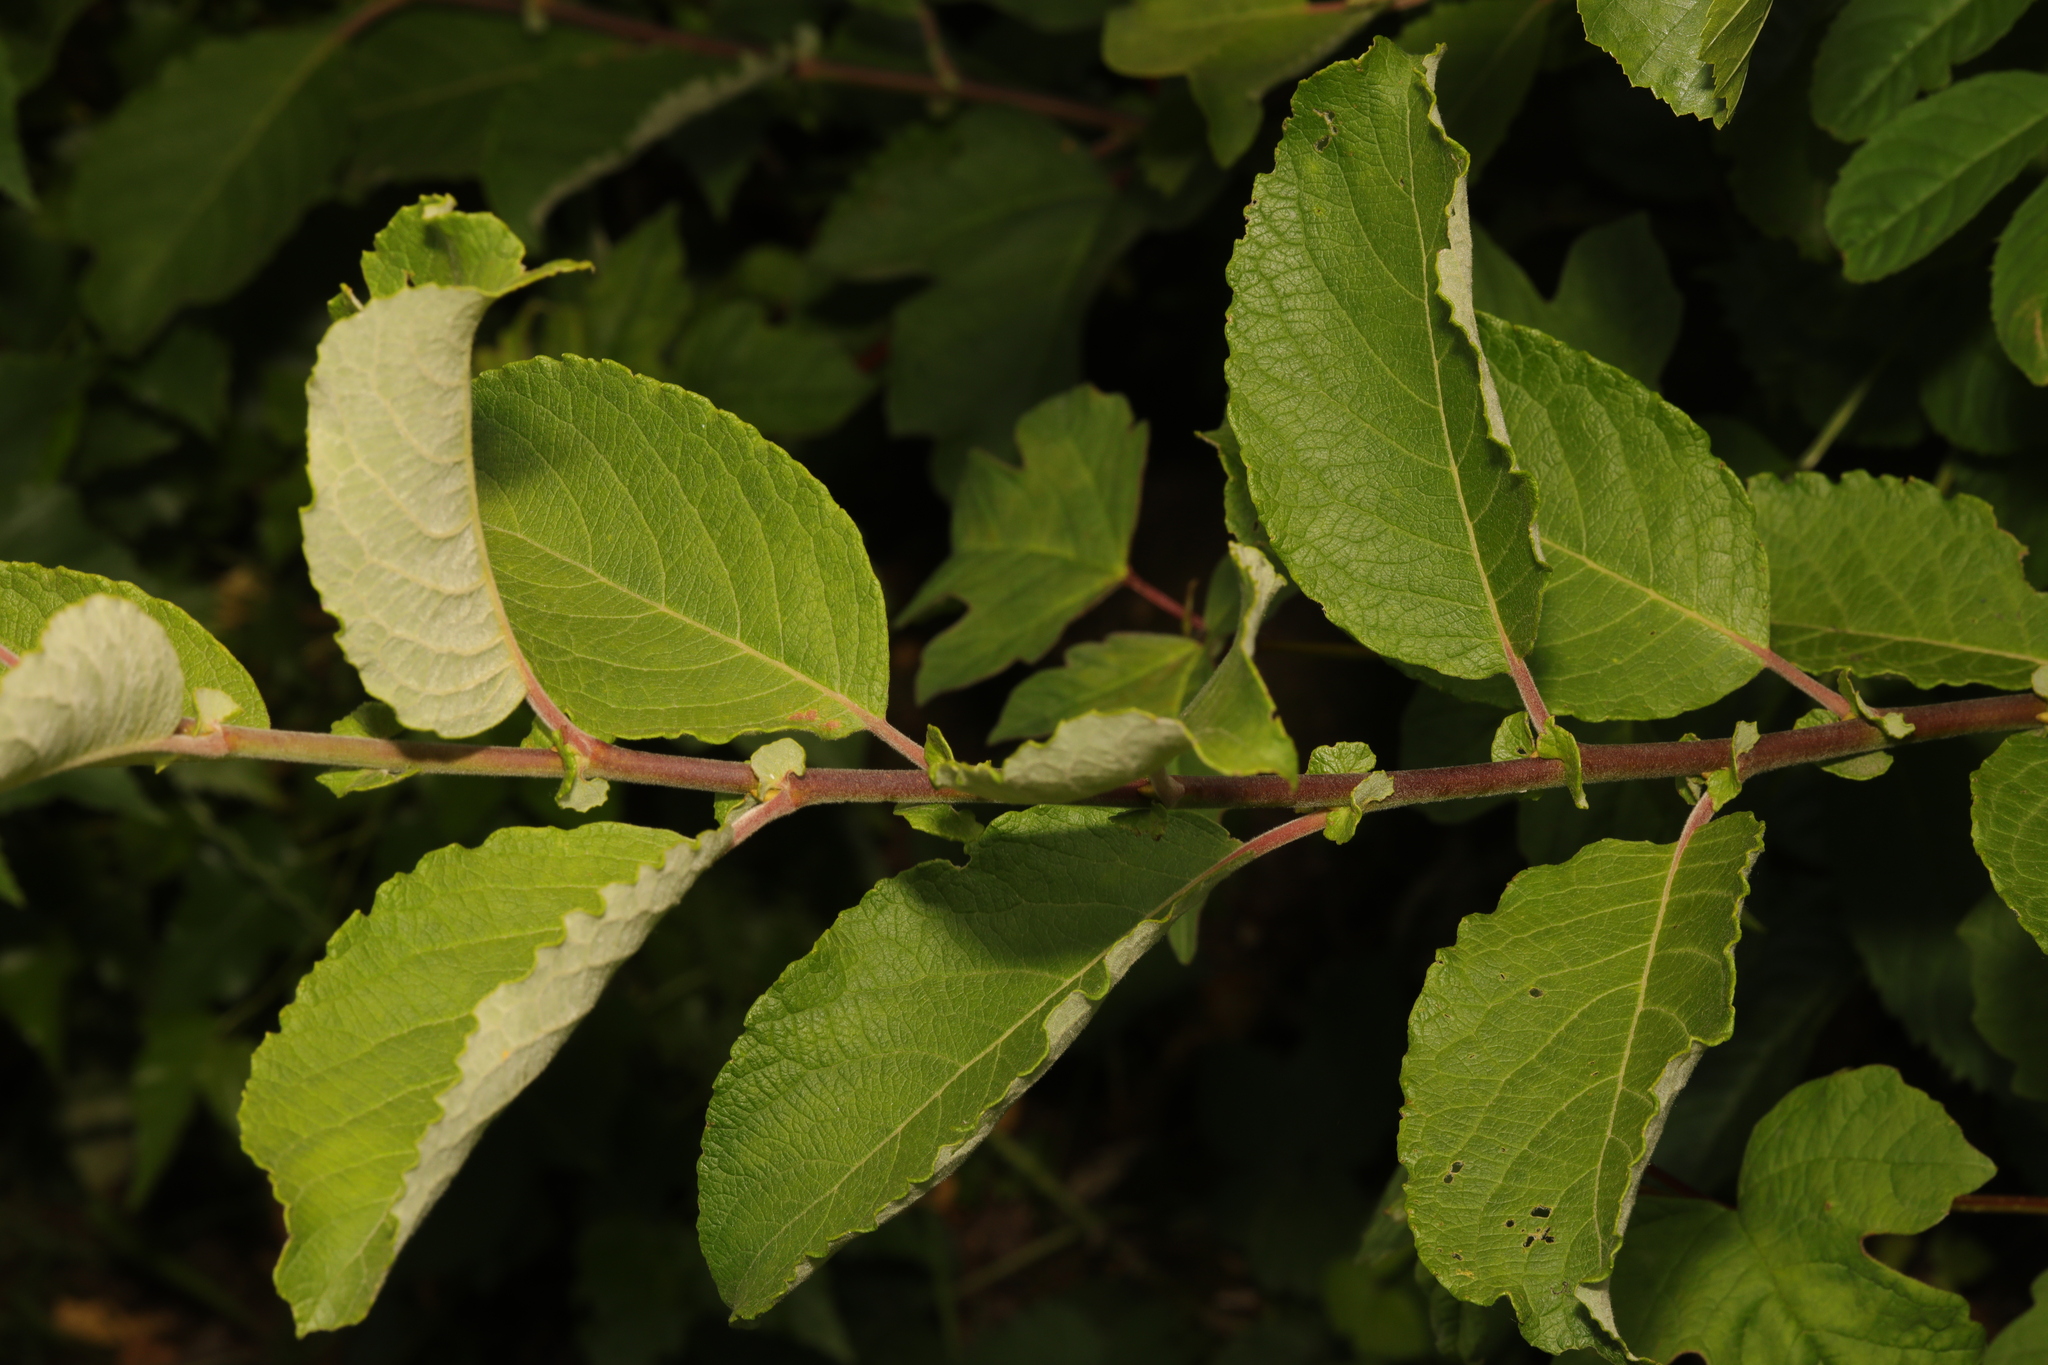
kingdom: Plantae
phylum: Tracheophyta
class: Magnoliopsida
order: Malpighiales
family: Salicaceae
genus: Salix
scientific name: Salix caprea
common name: Goat willow
